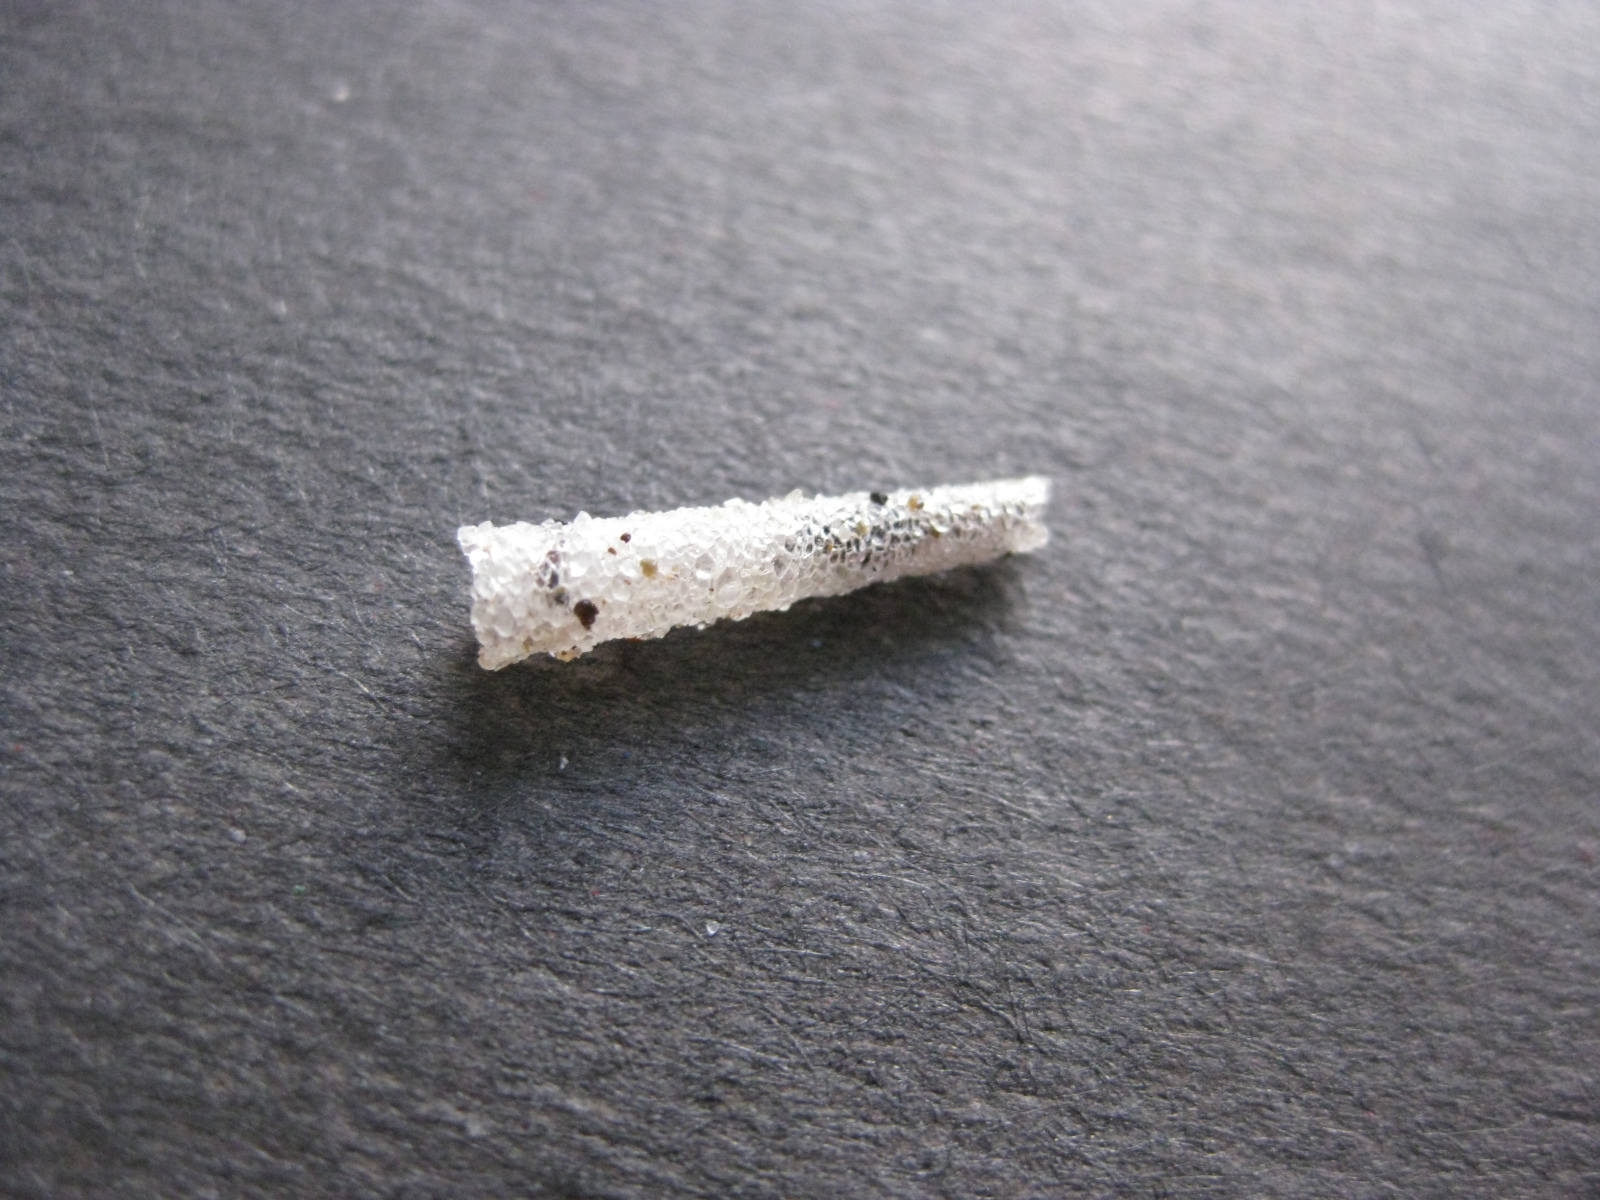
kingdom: Animalia
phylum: Annelida
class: Polychaeta
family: Pectinariidae
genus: Lagis
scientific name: Lagis australis
